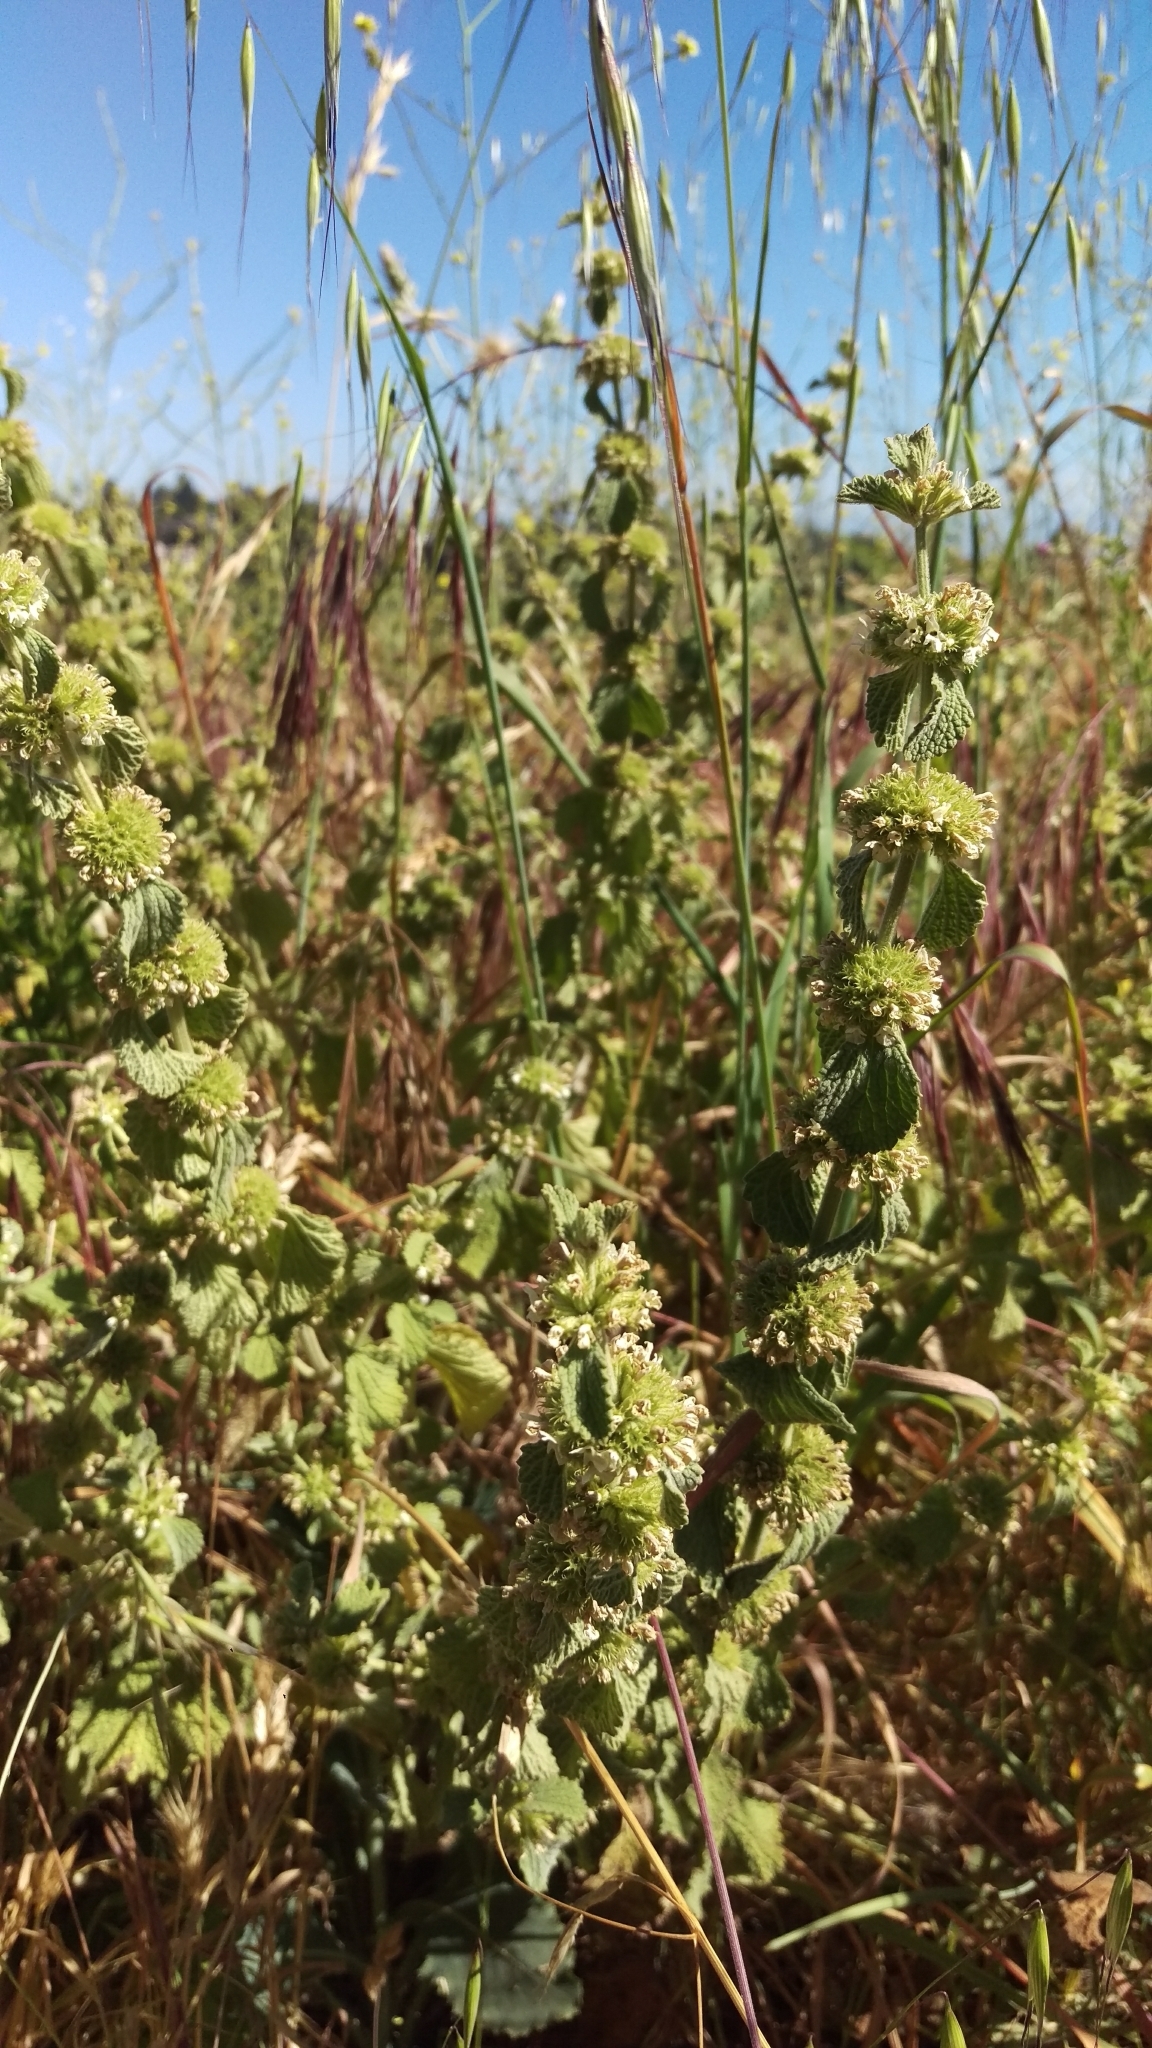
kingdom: Plantae
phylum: Tracheophyta
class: Magnoliopsida
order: Lamiales
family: Lamiaceae
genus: Marrubium
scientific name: Marrubium vulgare
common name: Horehound
